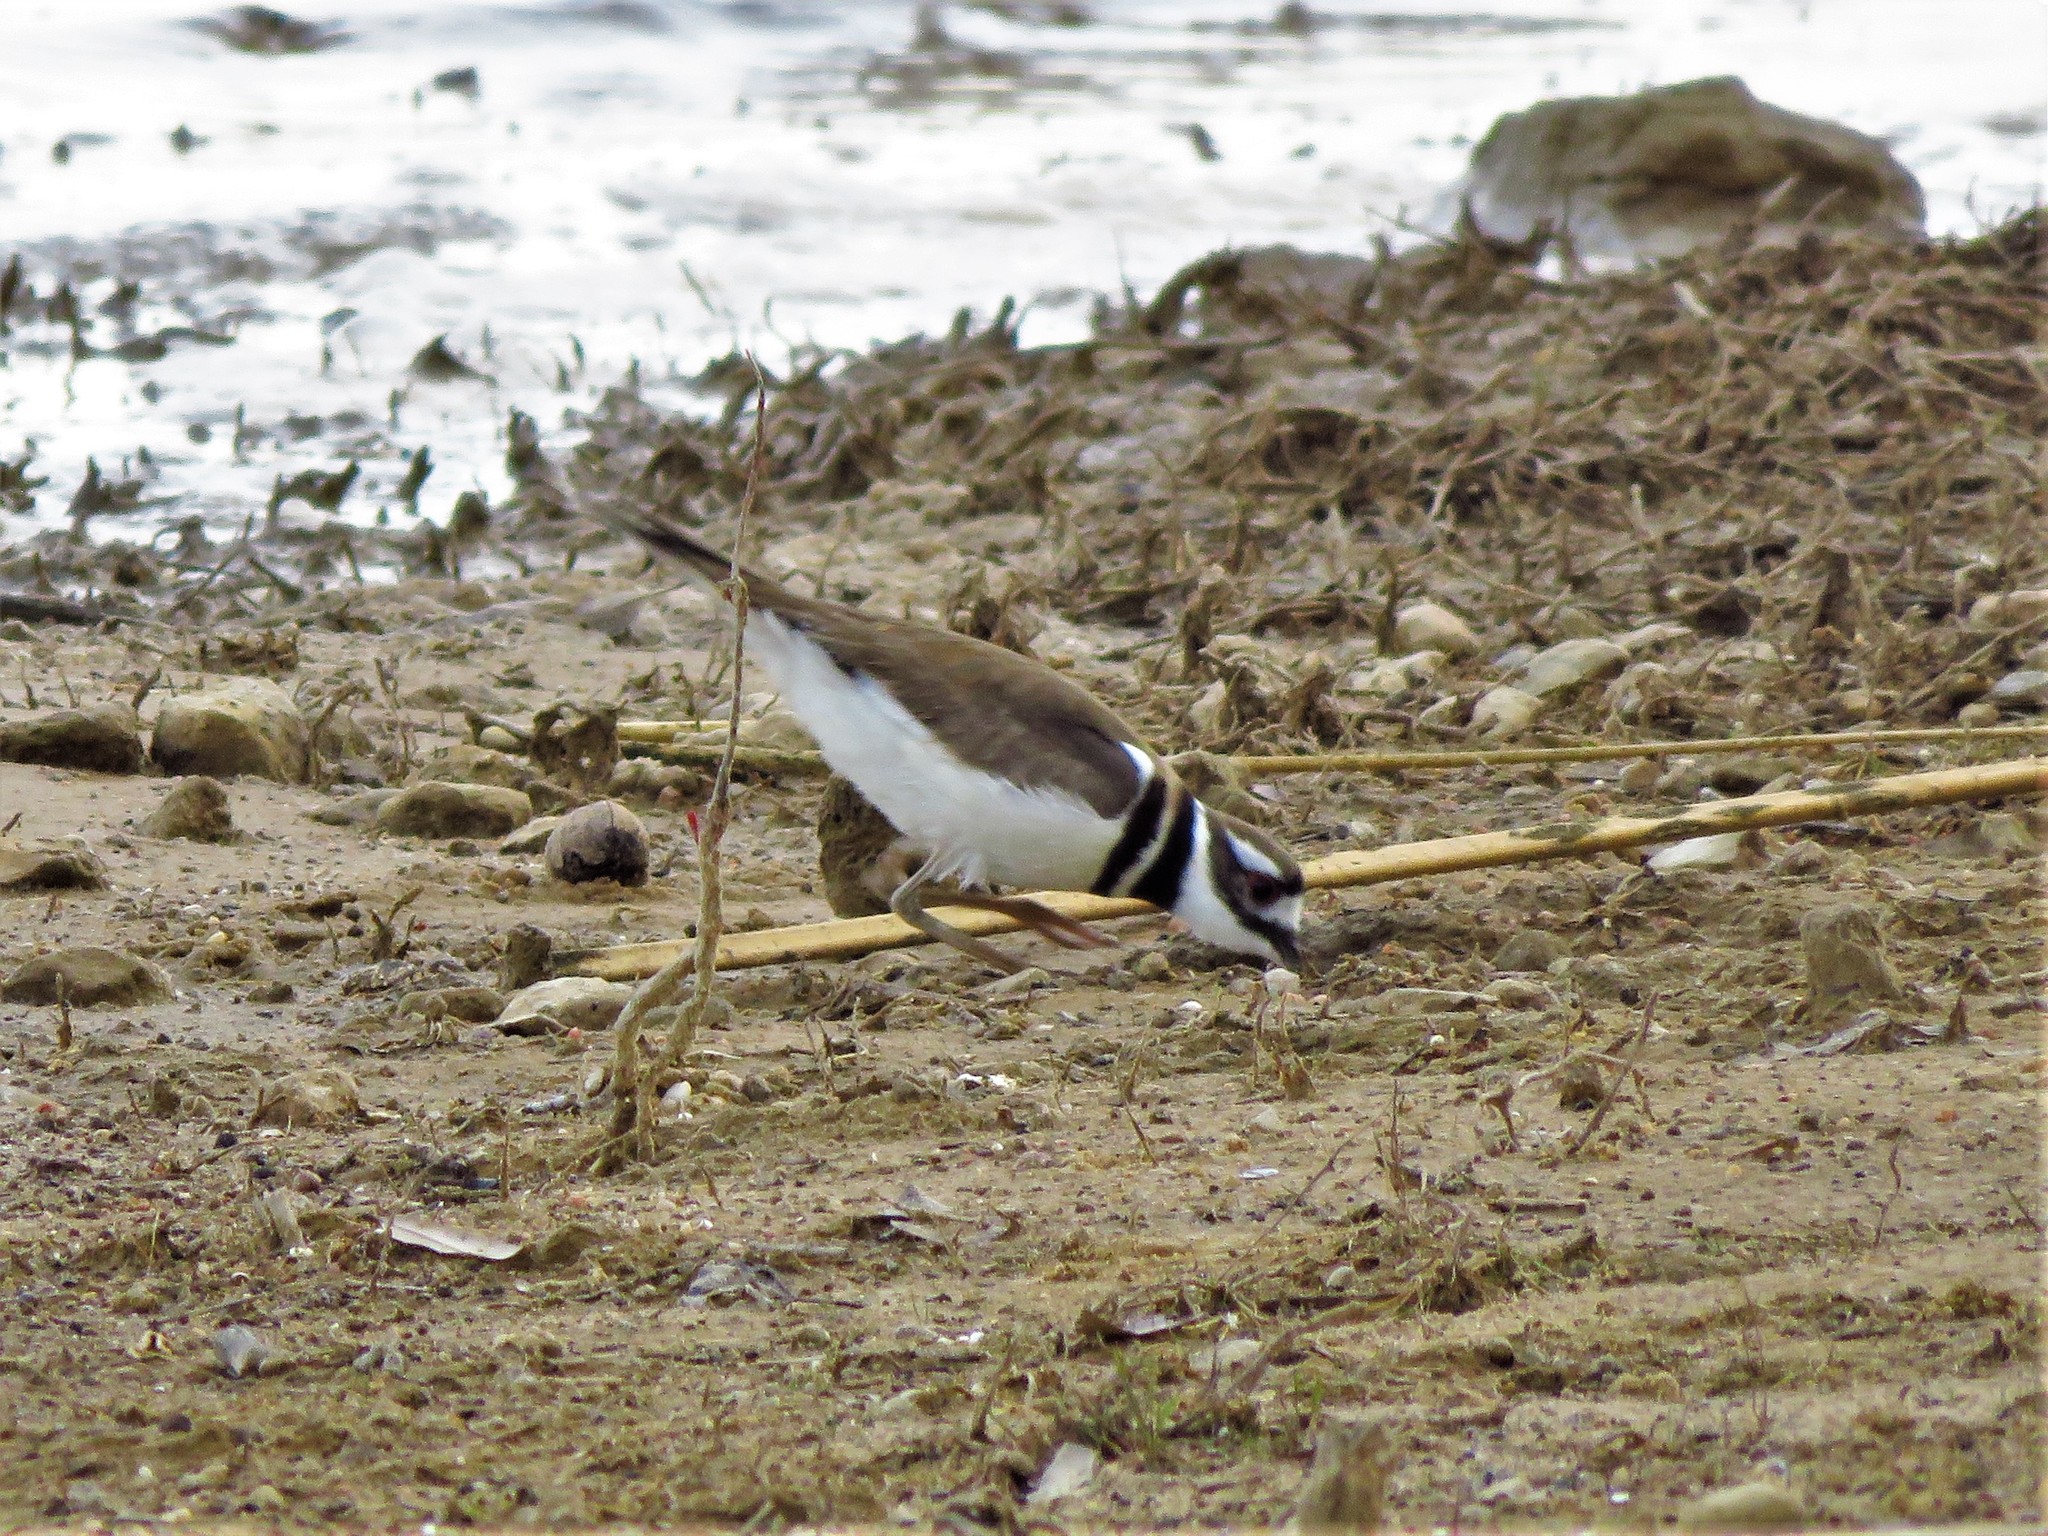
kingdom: Animalia
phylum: Chordata
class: Aves
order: Charadriiformes
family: Charadriidae
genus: Charadrius
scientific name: Charadrius vociferus
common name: Killdeer
